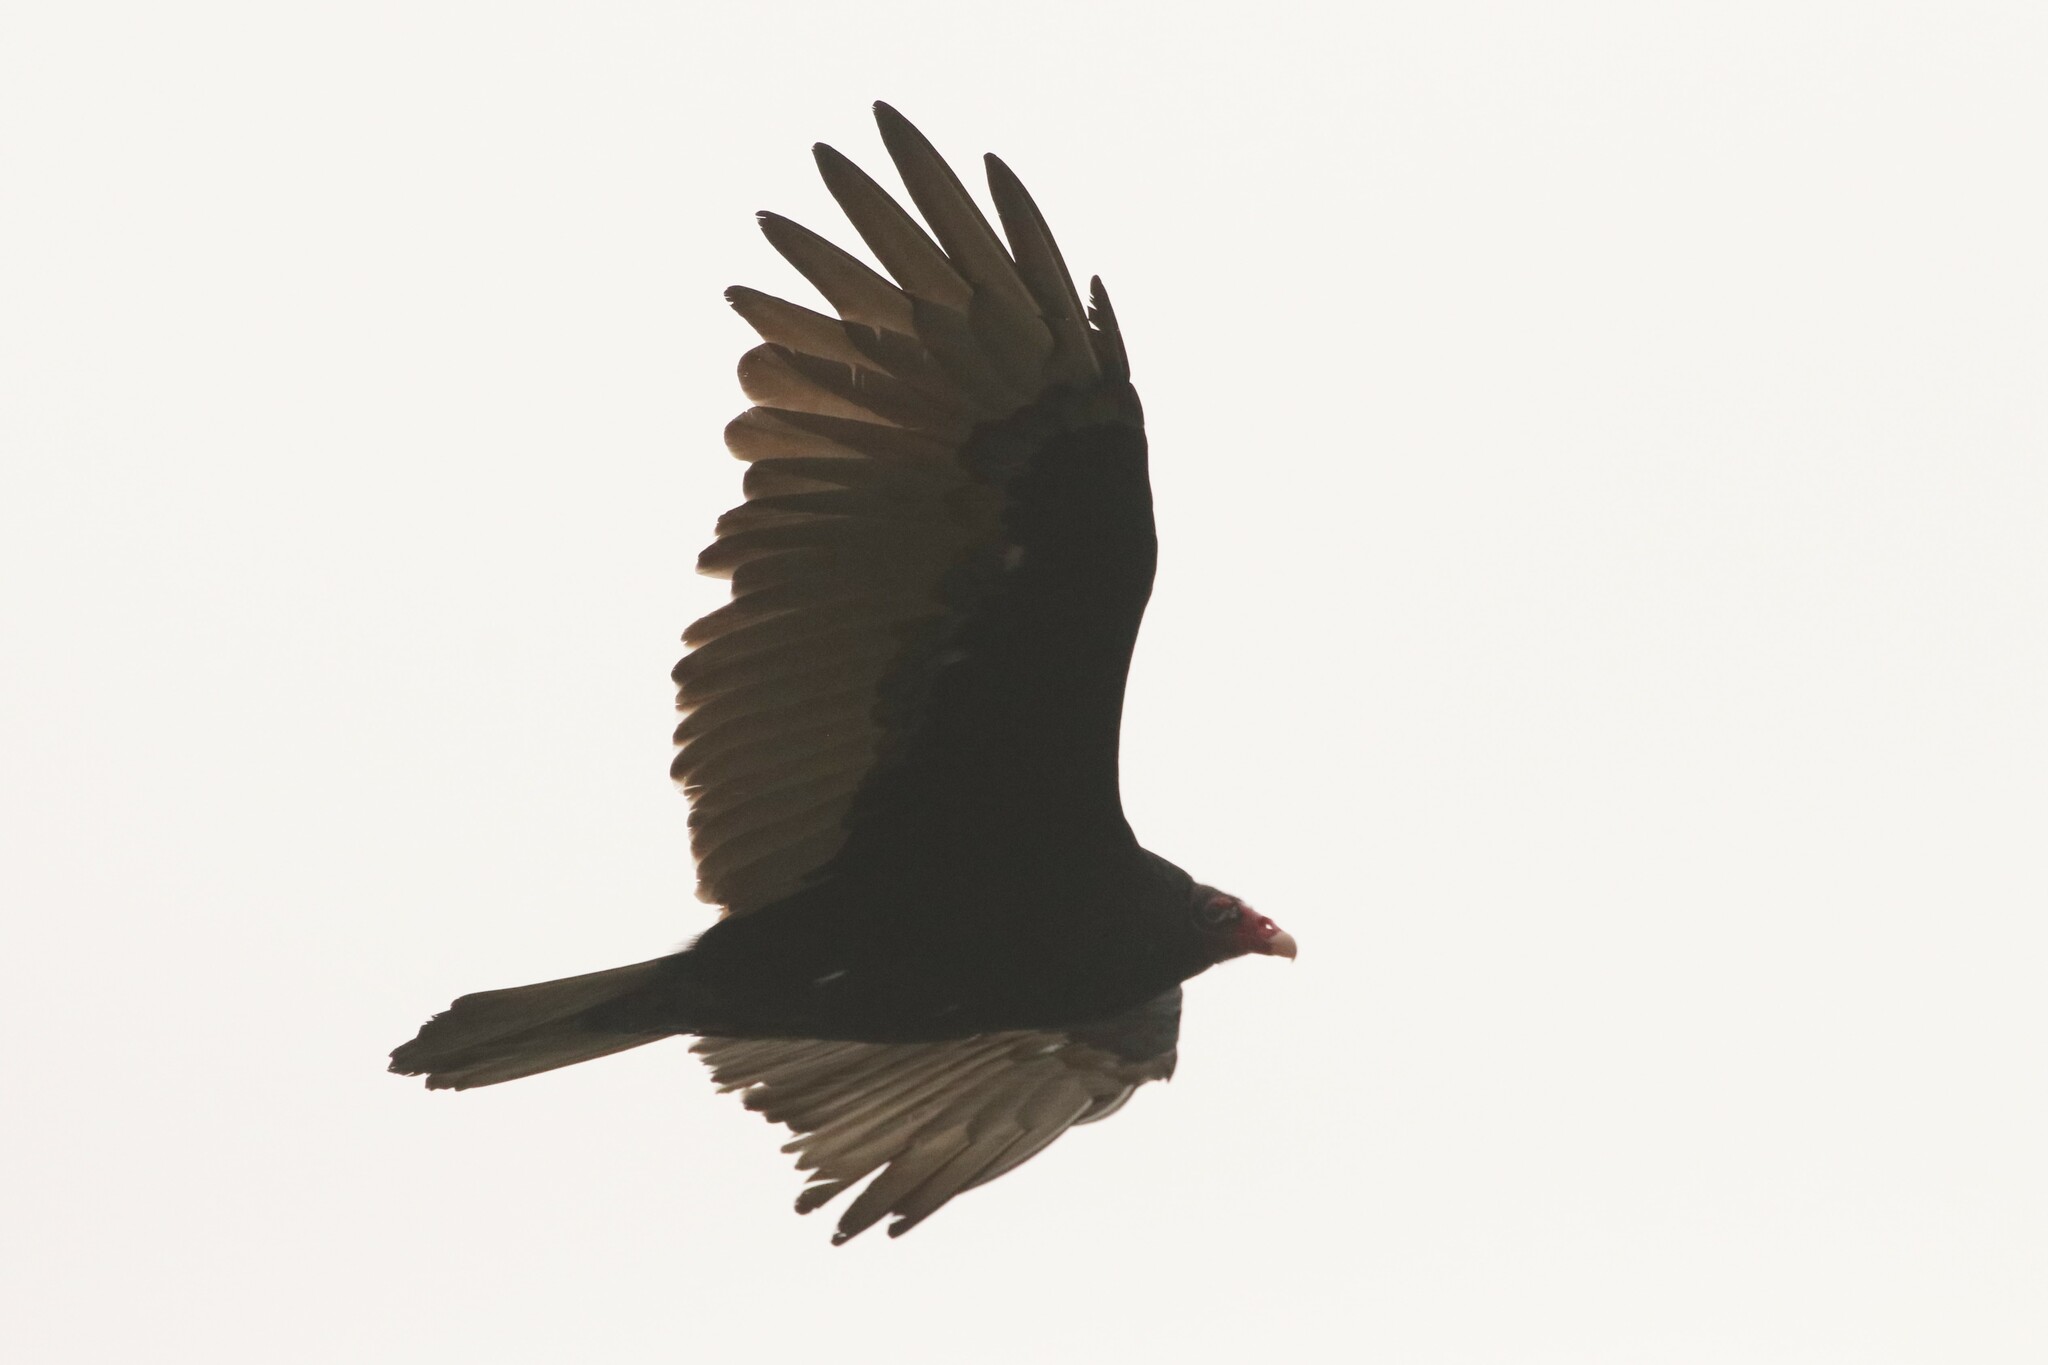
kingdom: Animalia
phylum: Chordata
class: Aves
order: Accipitriformes
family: Cathartidae
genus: Cathartes
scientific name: Cathartes aura
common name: Turkey vulture
